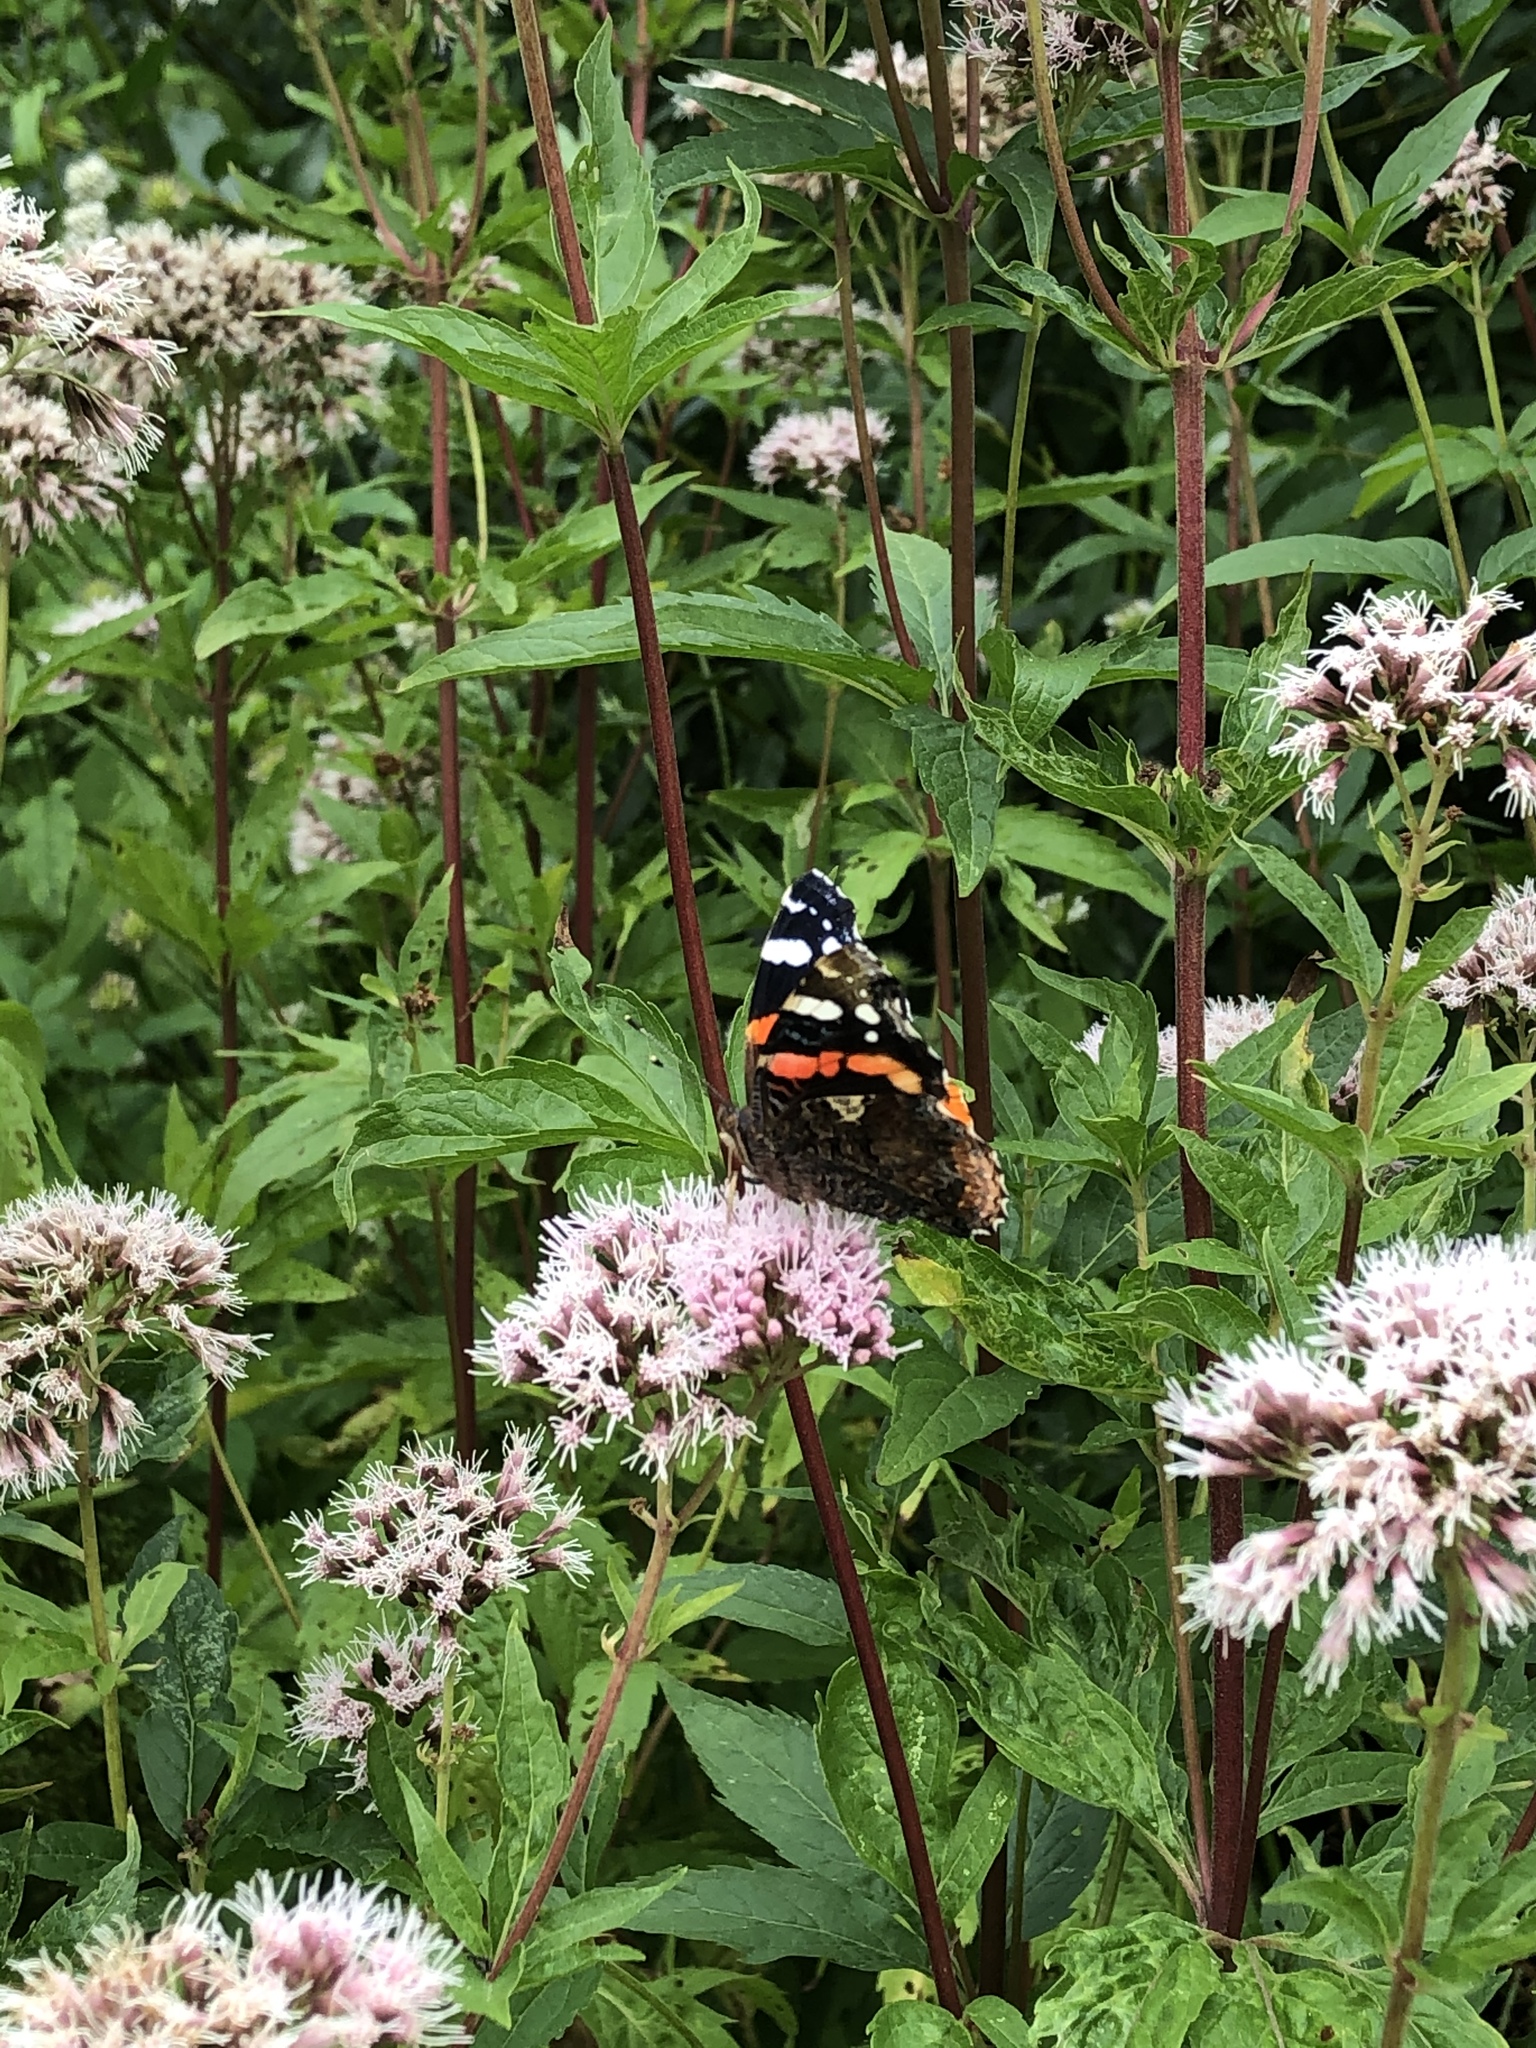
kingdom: Animalia
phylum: Arthropoda
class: Insecta
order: Lepidoptera
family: Nymphalidae
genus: Vanessa
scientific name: Vanessa atalanta
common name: Red admiral
